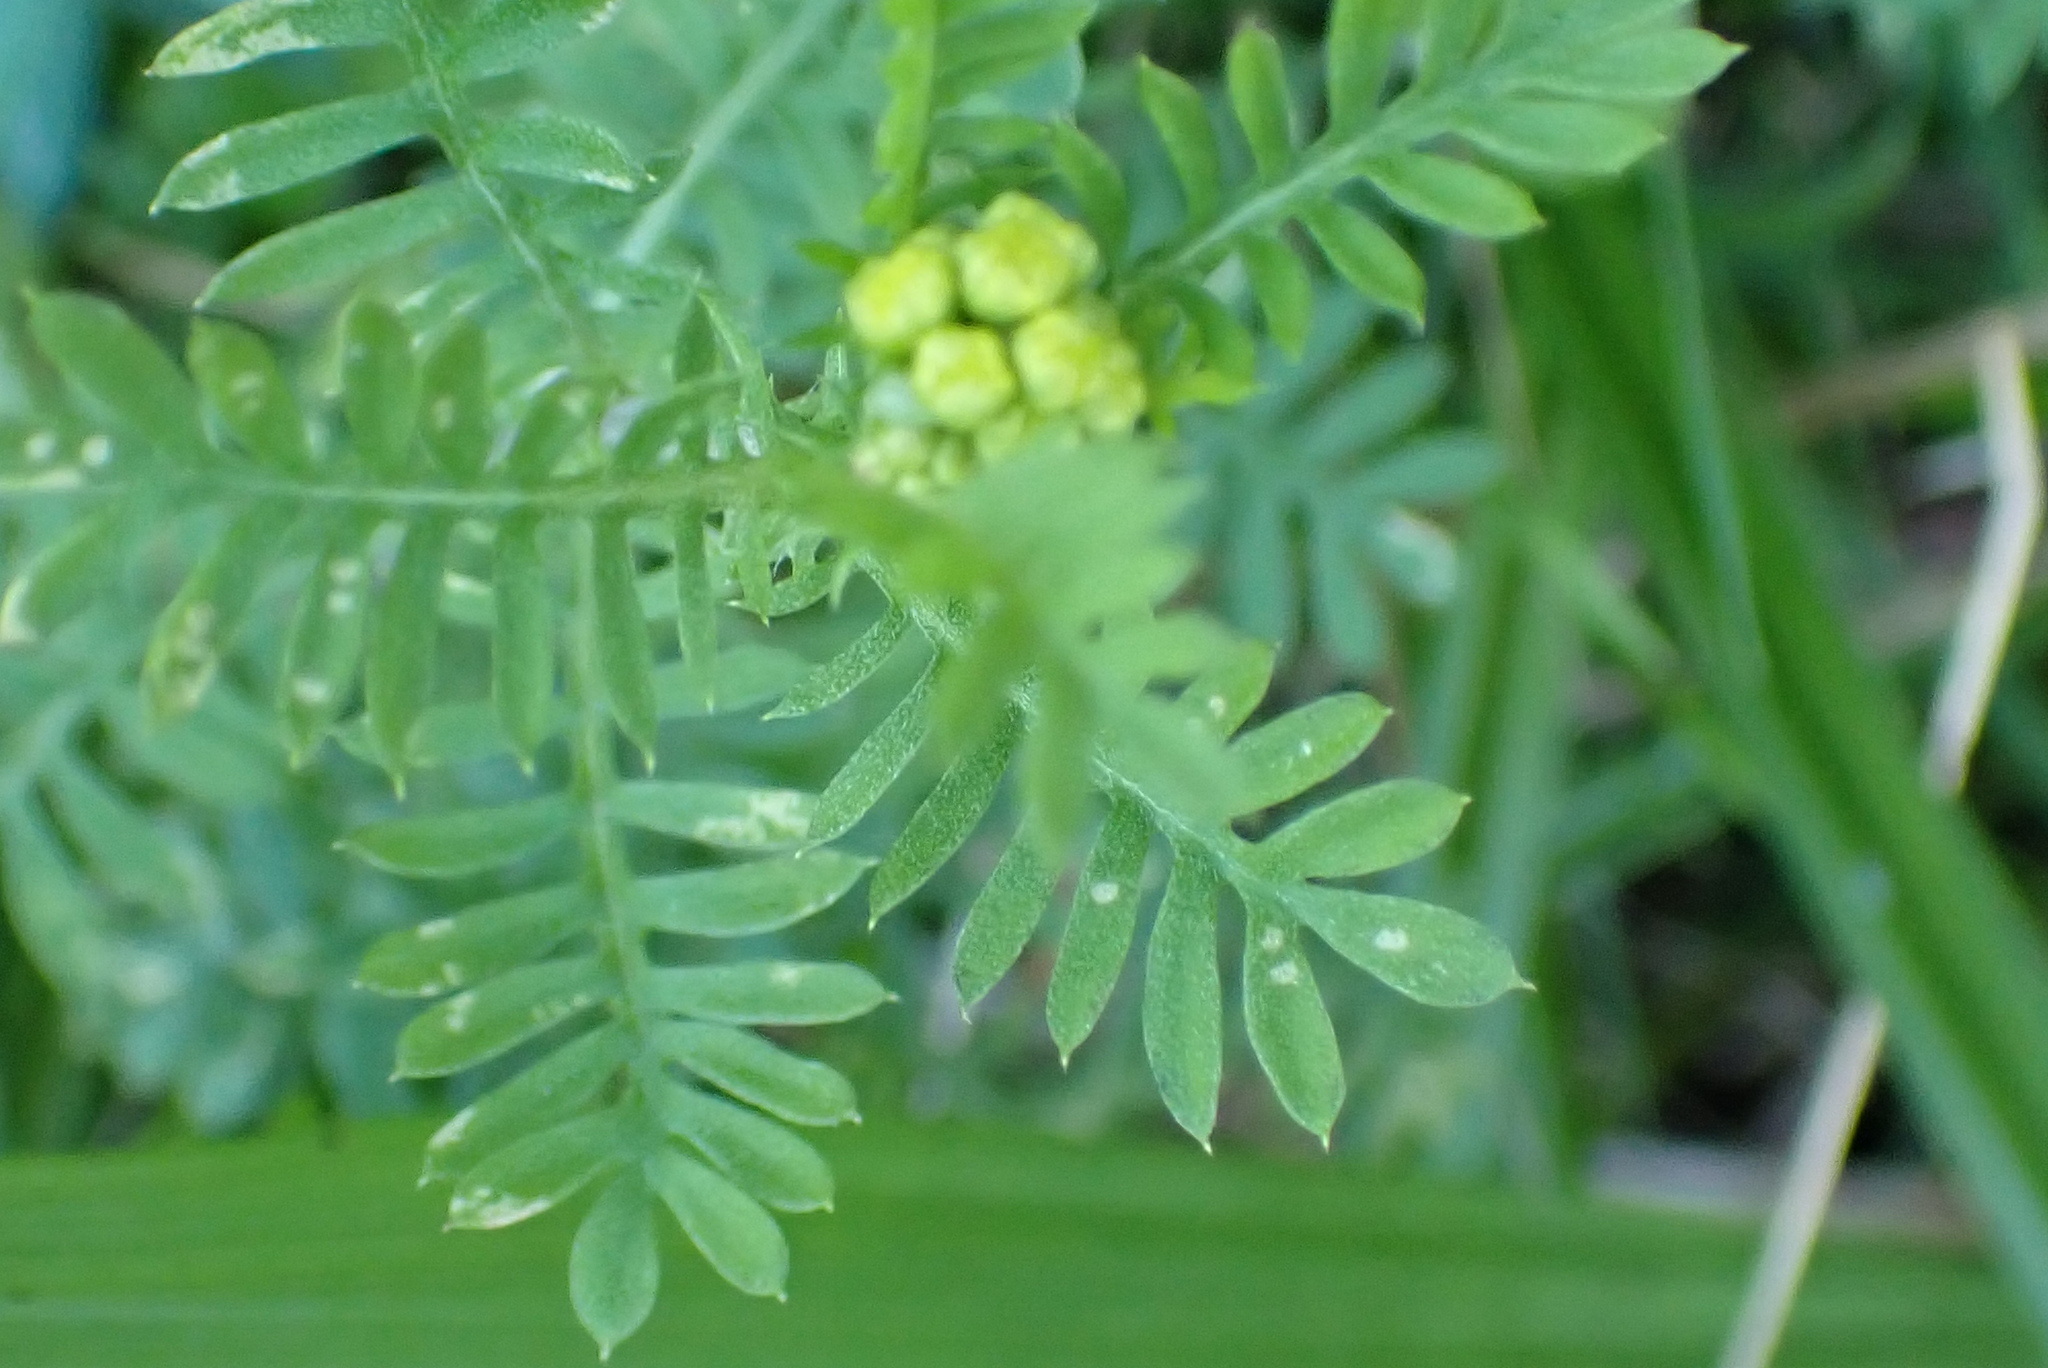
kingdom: Plantae
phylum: Tracheophyta
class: Magnoliopsida
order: Asterales
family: Asteraceae
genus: Hippia
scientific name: Hippia frutescens
